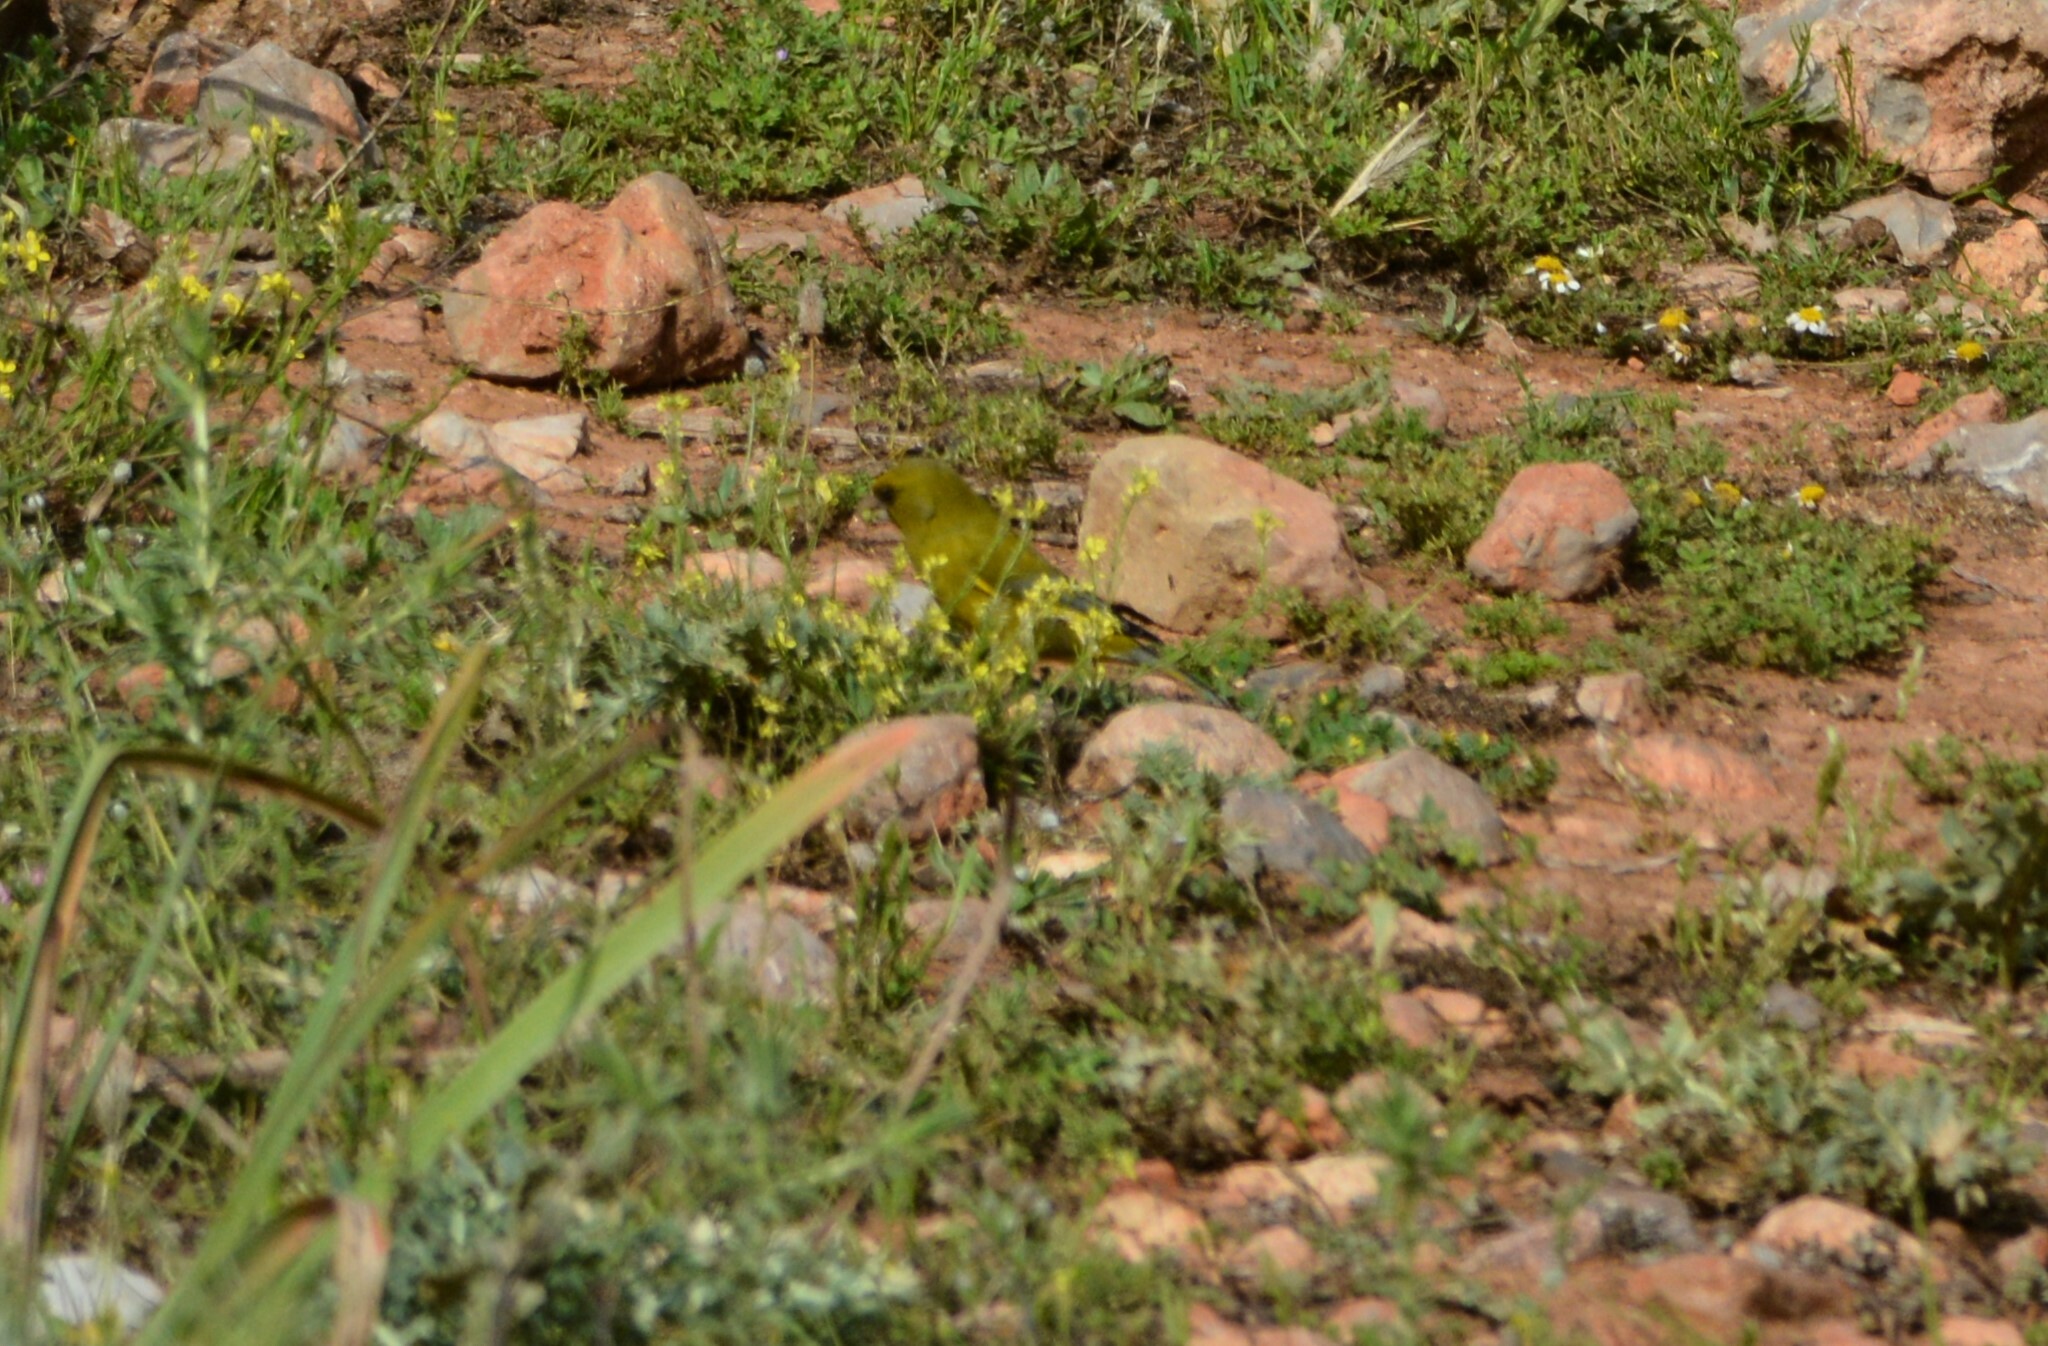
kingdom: Plantae
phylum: Tracheophyta
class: Liliopsida
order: Poales
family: Poaceae
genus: Chloris
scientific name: Chloris chloris
